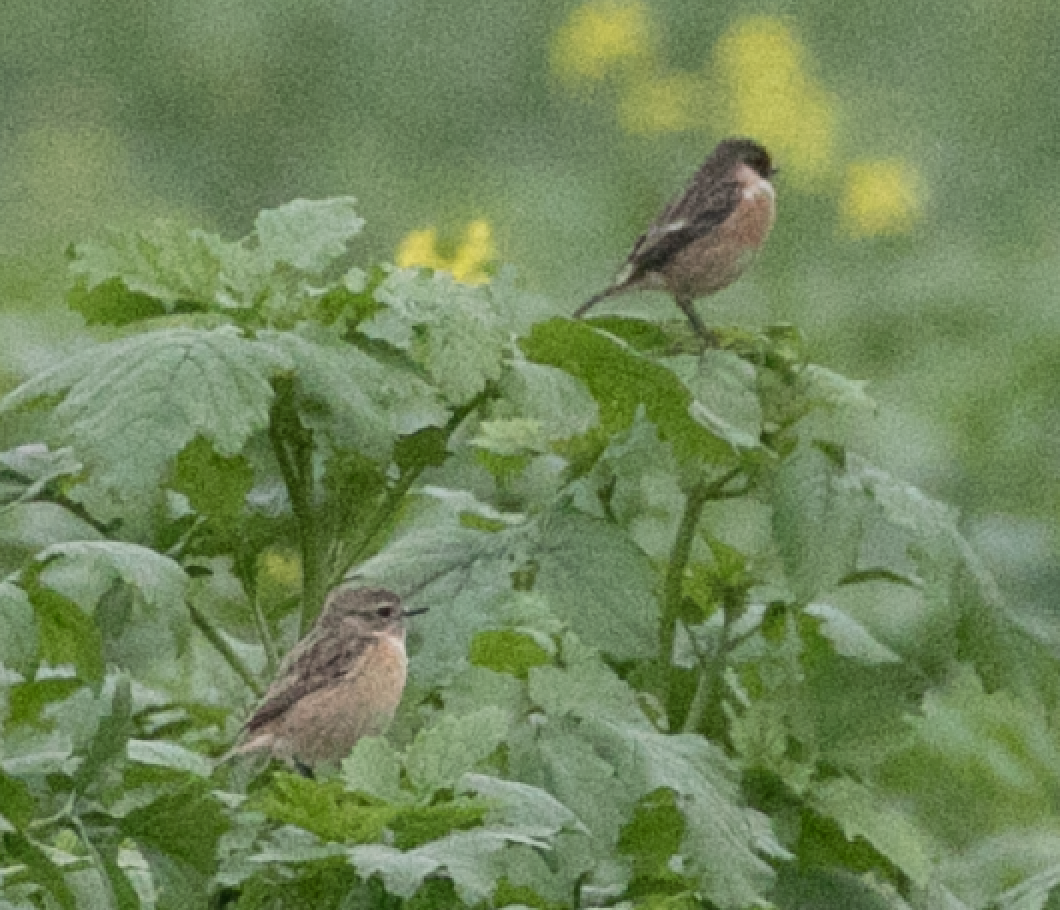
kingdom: Animalia
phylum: Chordata
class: Aves
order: Passeriformes
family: Muscicapidae
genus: Saxicola
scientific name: Saxicola rubicola
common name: European stonechat
